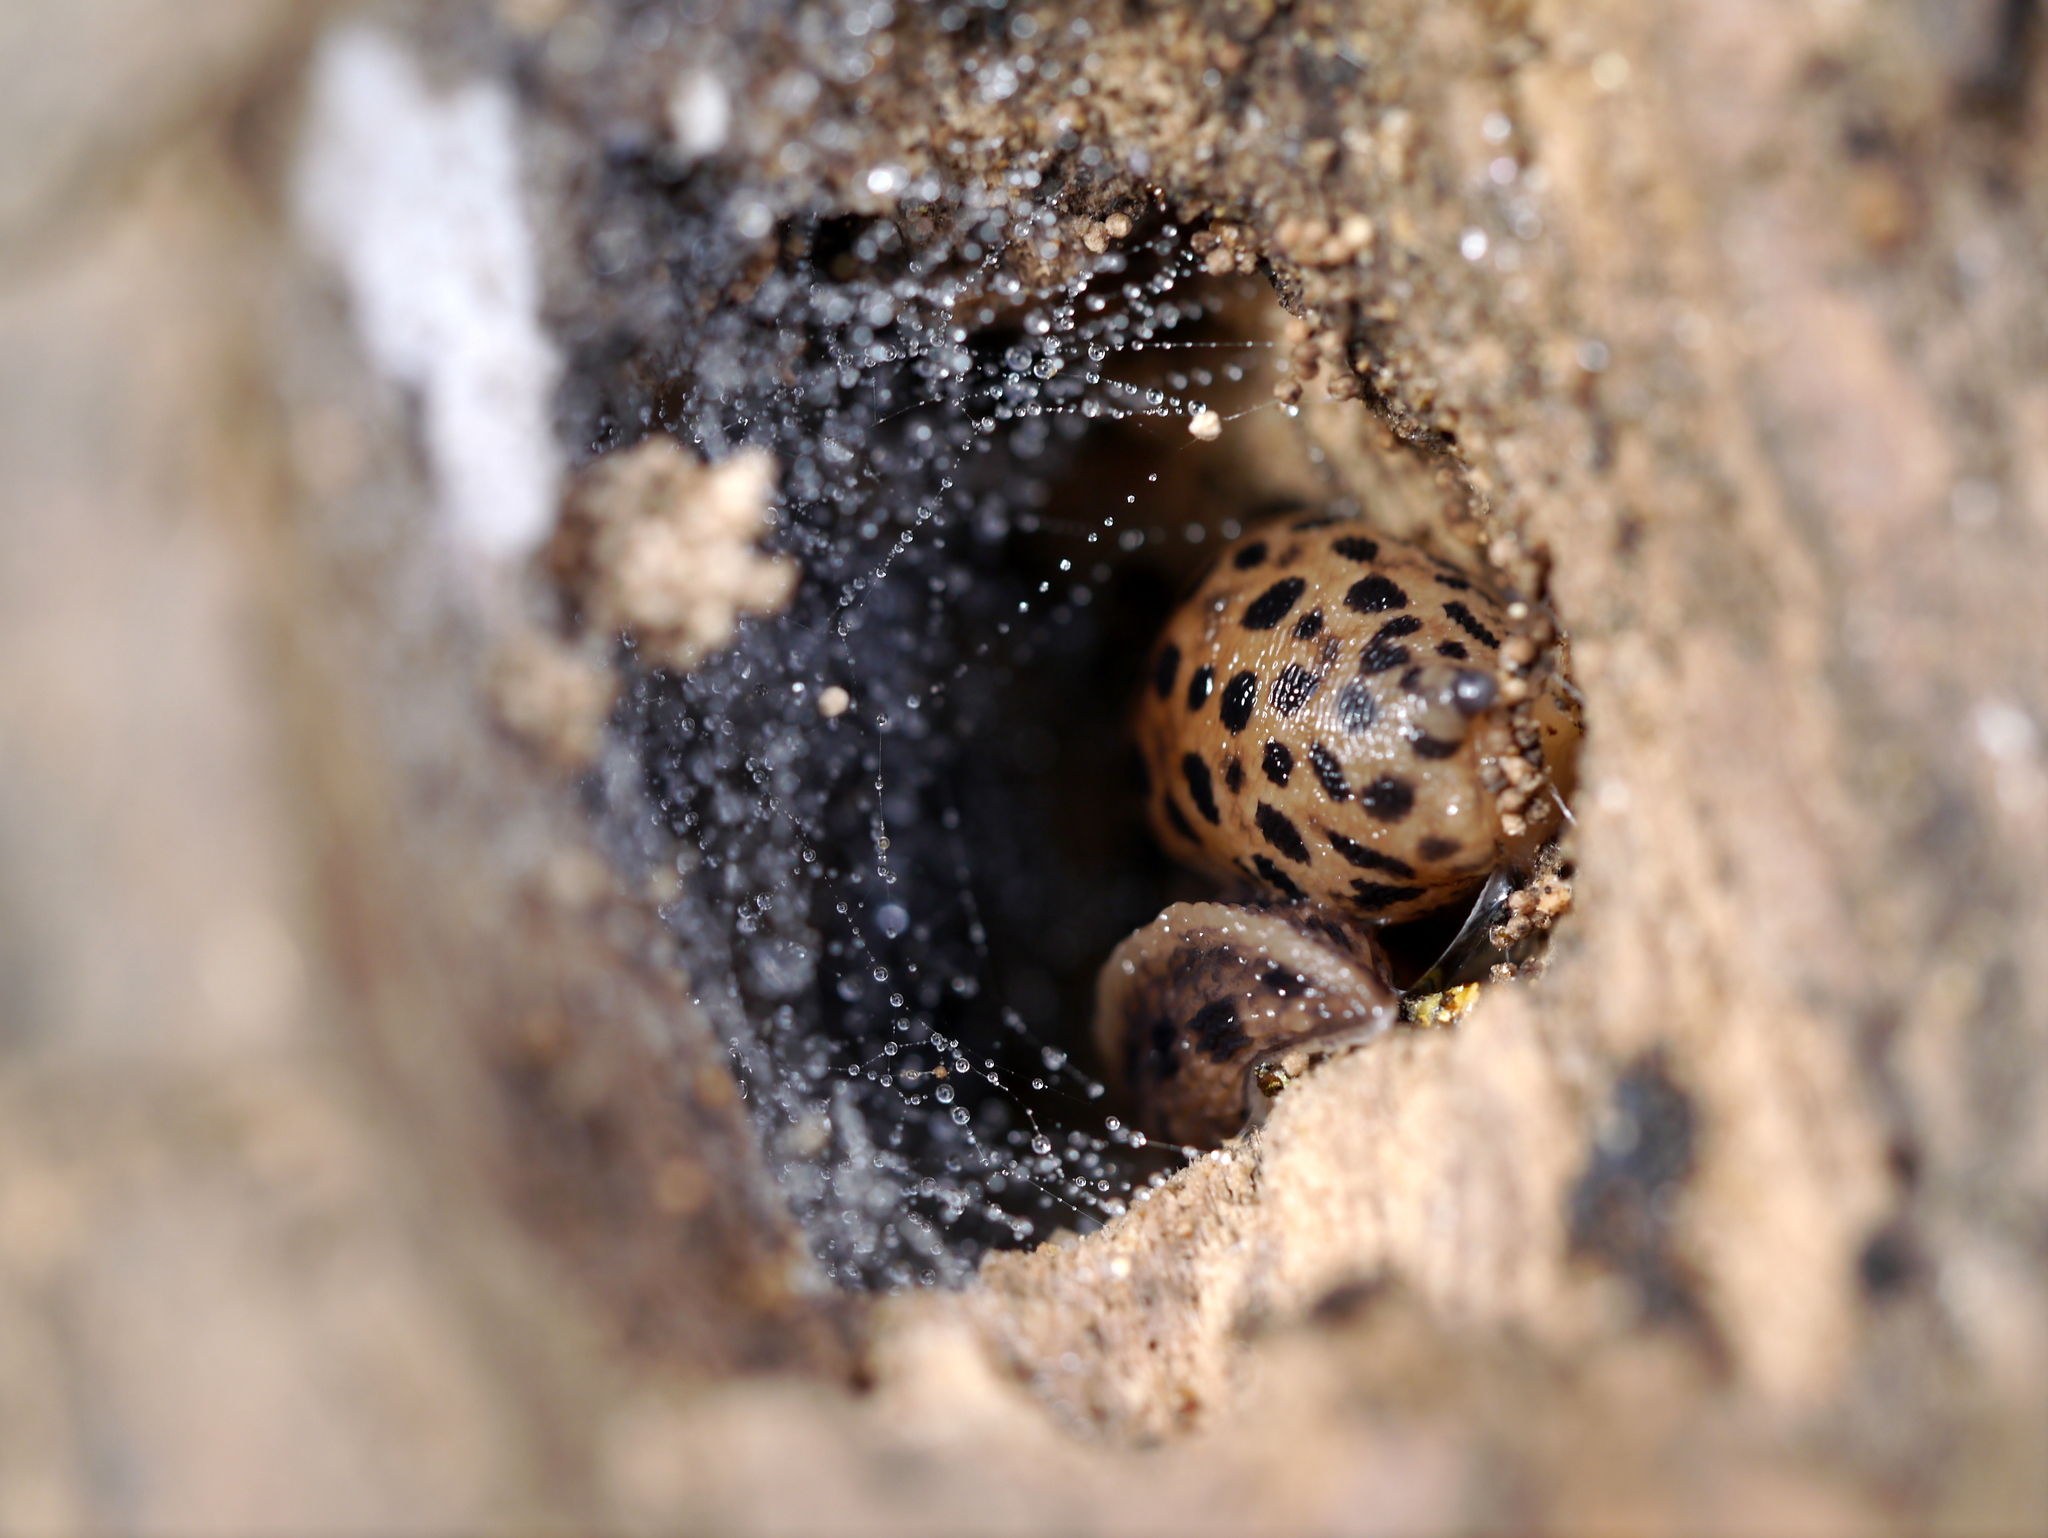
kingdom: Animalia
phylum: Mollusca
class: Gastropoda
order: Stylommatophora
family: Limacidae
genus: Limax
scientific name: Limax maximus
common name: Great grey slug
